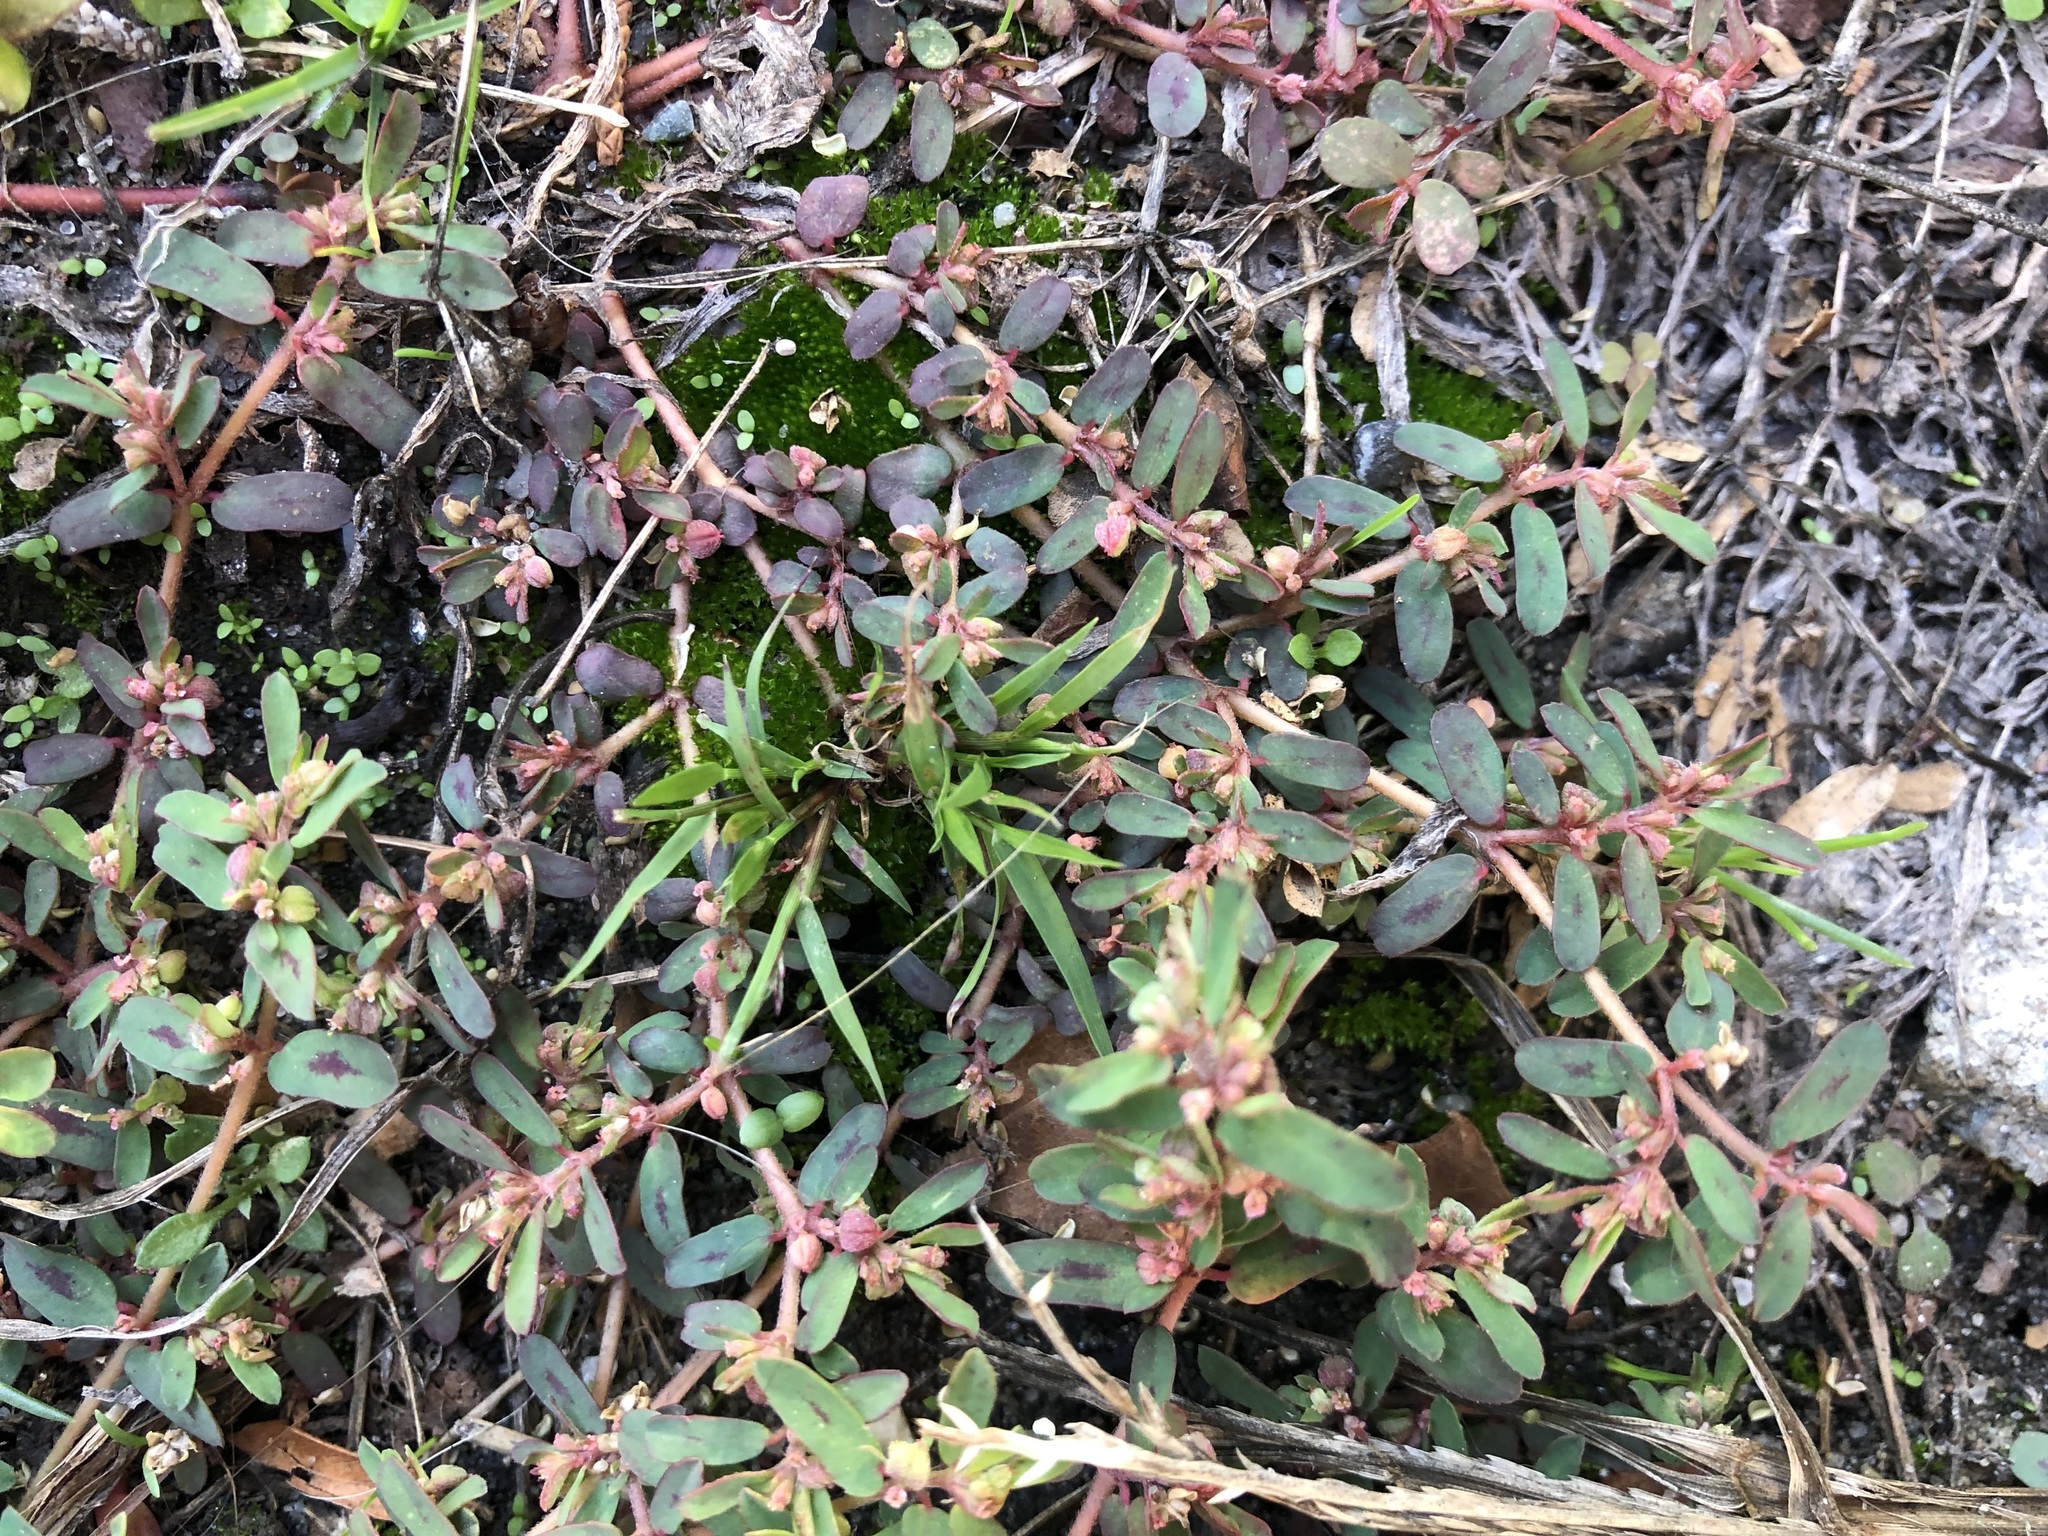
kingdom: Plantae
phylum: Tracheophyta
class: Magnoliopsida
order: Malpighiales
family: Euphorbiaceae
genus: Euphorbia
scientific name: Euphorbia maculata
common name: Spotted spurge
